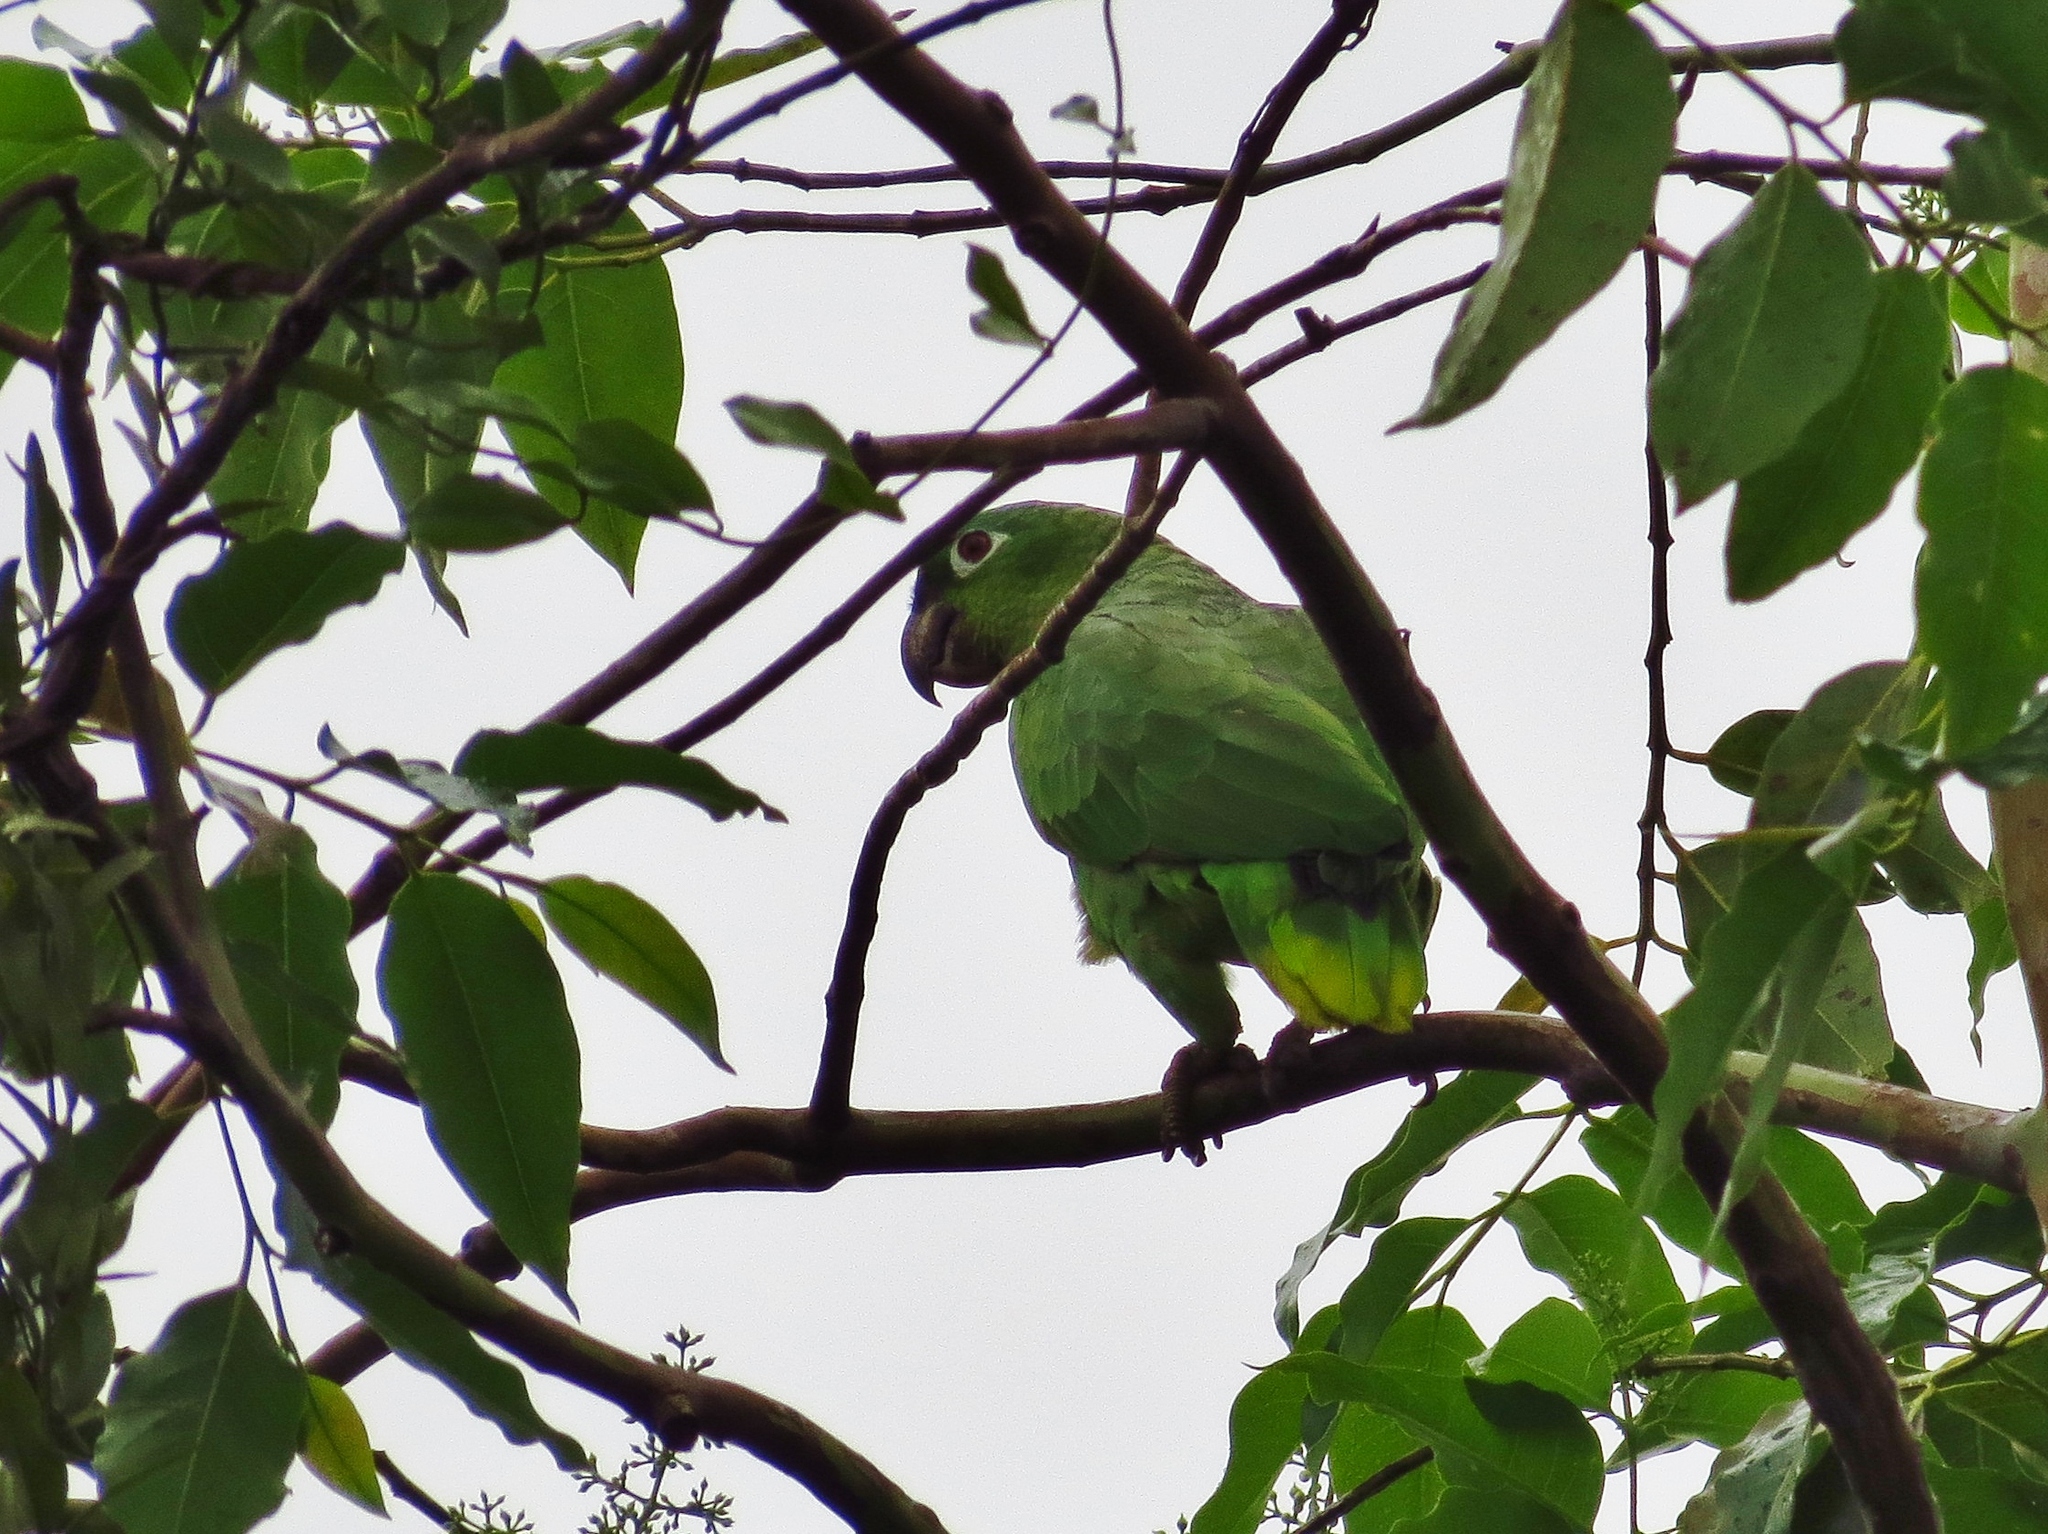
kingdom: Animalia
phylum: Chordata
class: Aves
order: Psittaciformes
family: Psittacidae
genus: Amazona
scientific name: Amazona farinosa
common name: Mealy parrot
